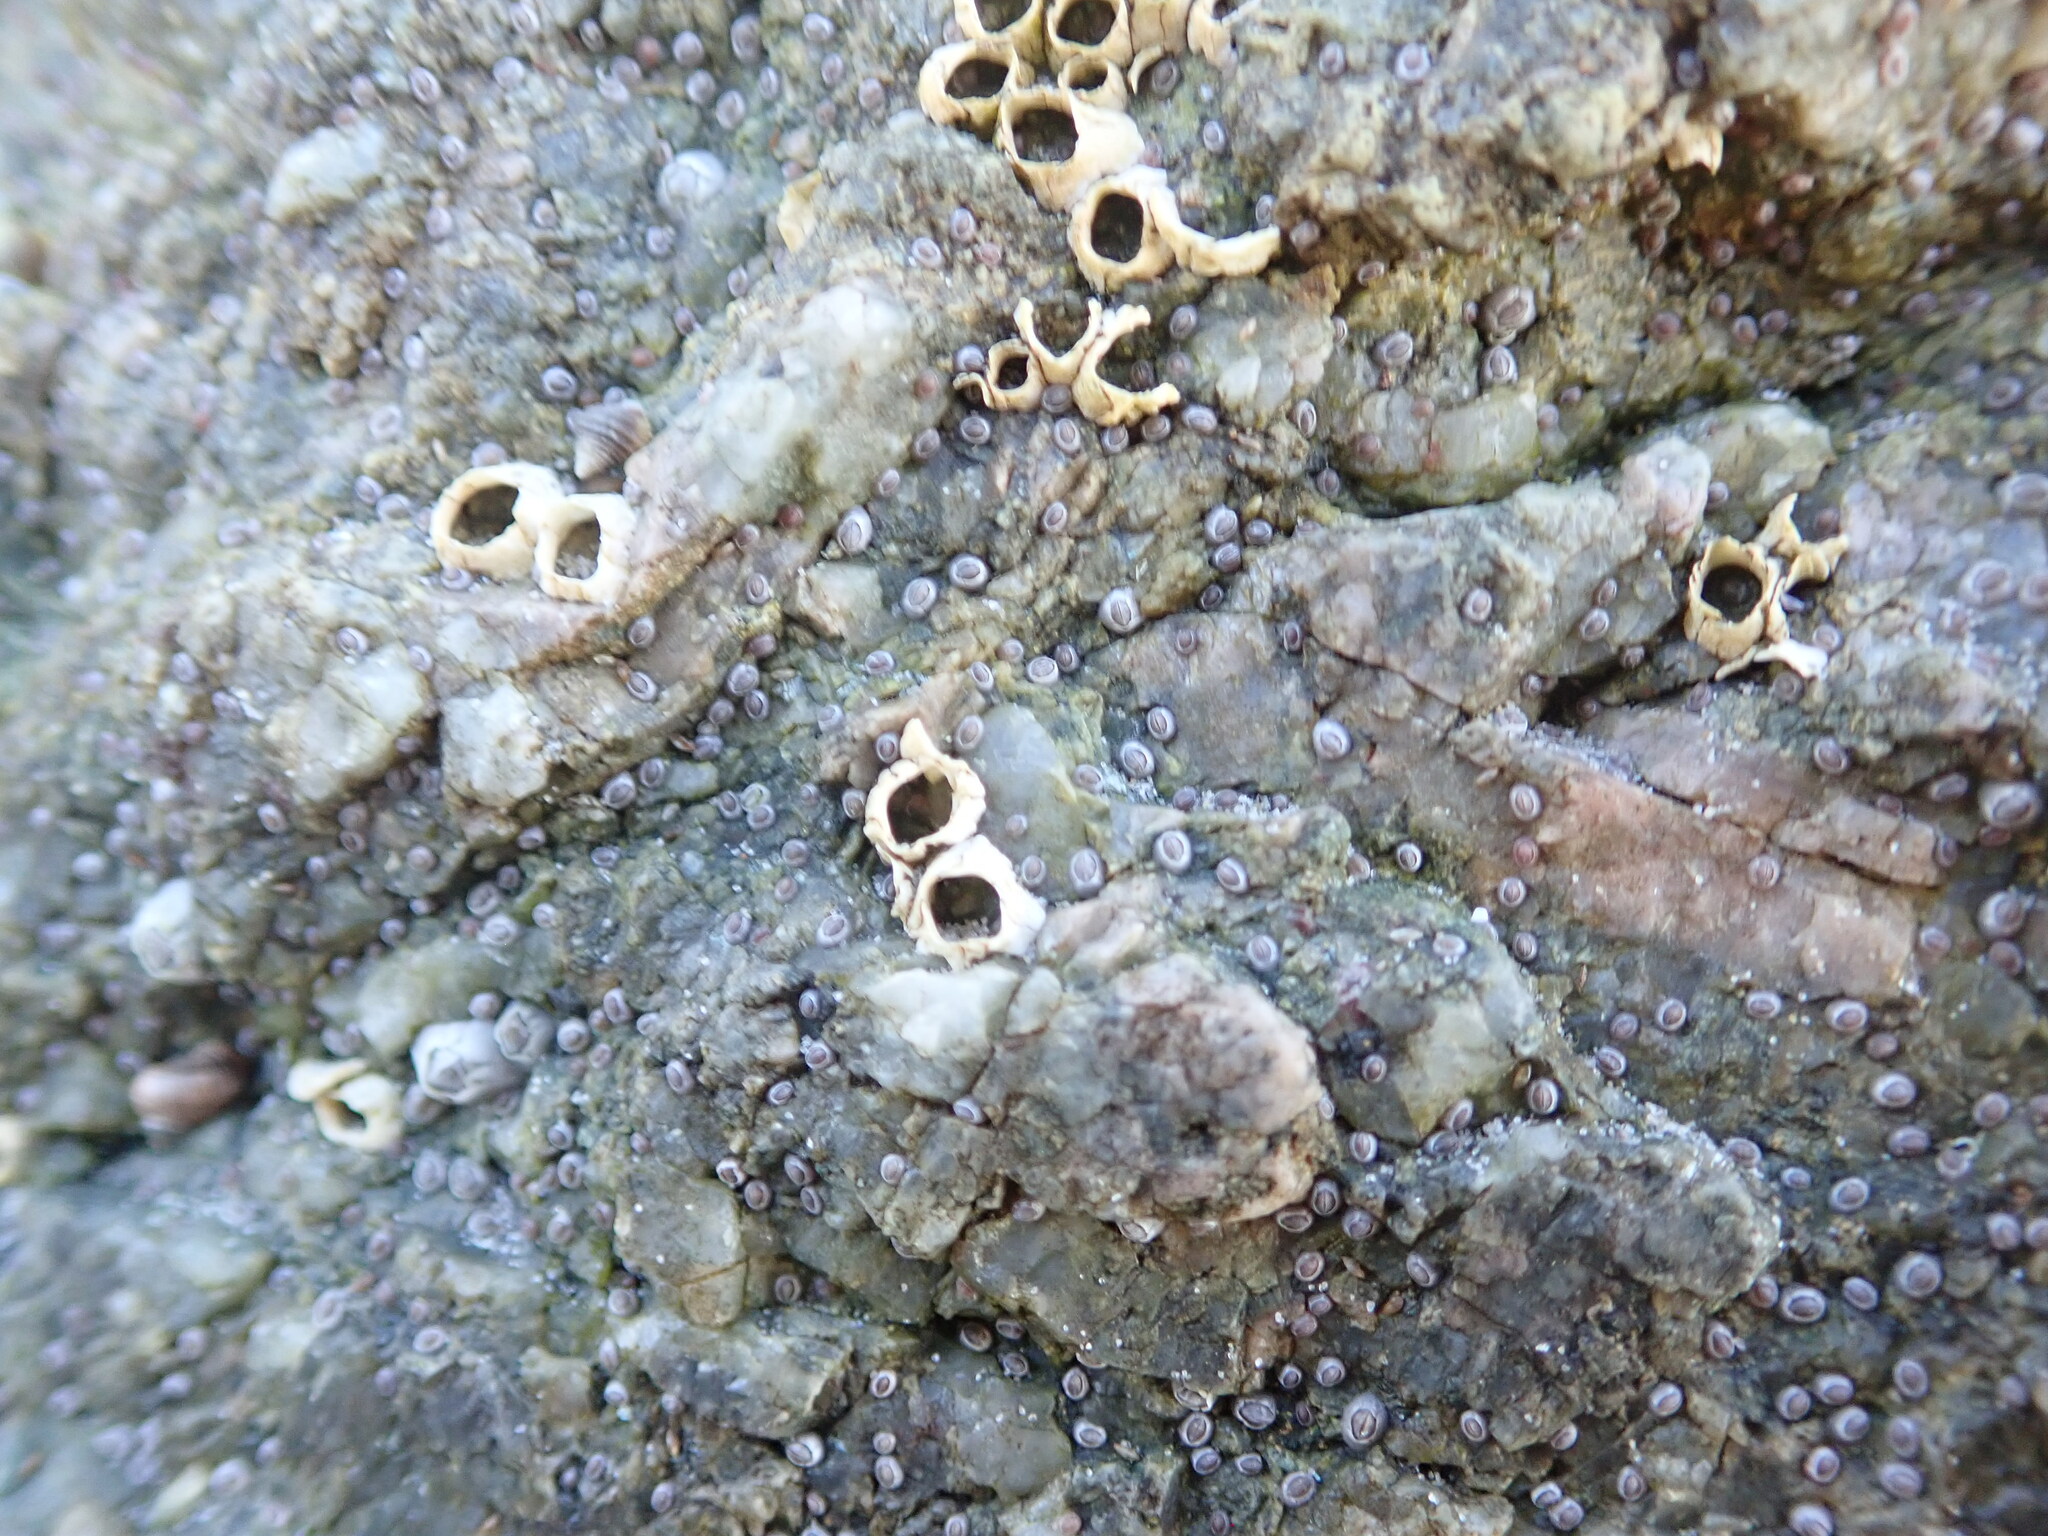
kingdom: Animalia
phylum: Arthropoda
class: Maxillopoda
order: Sessilia
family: Archaeobalanidae
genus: Semibalanus
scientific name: Semibalanus balanoides
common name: Acorn barnacle
